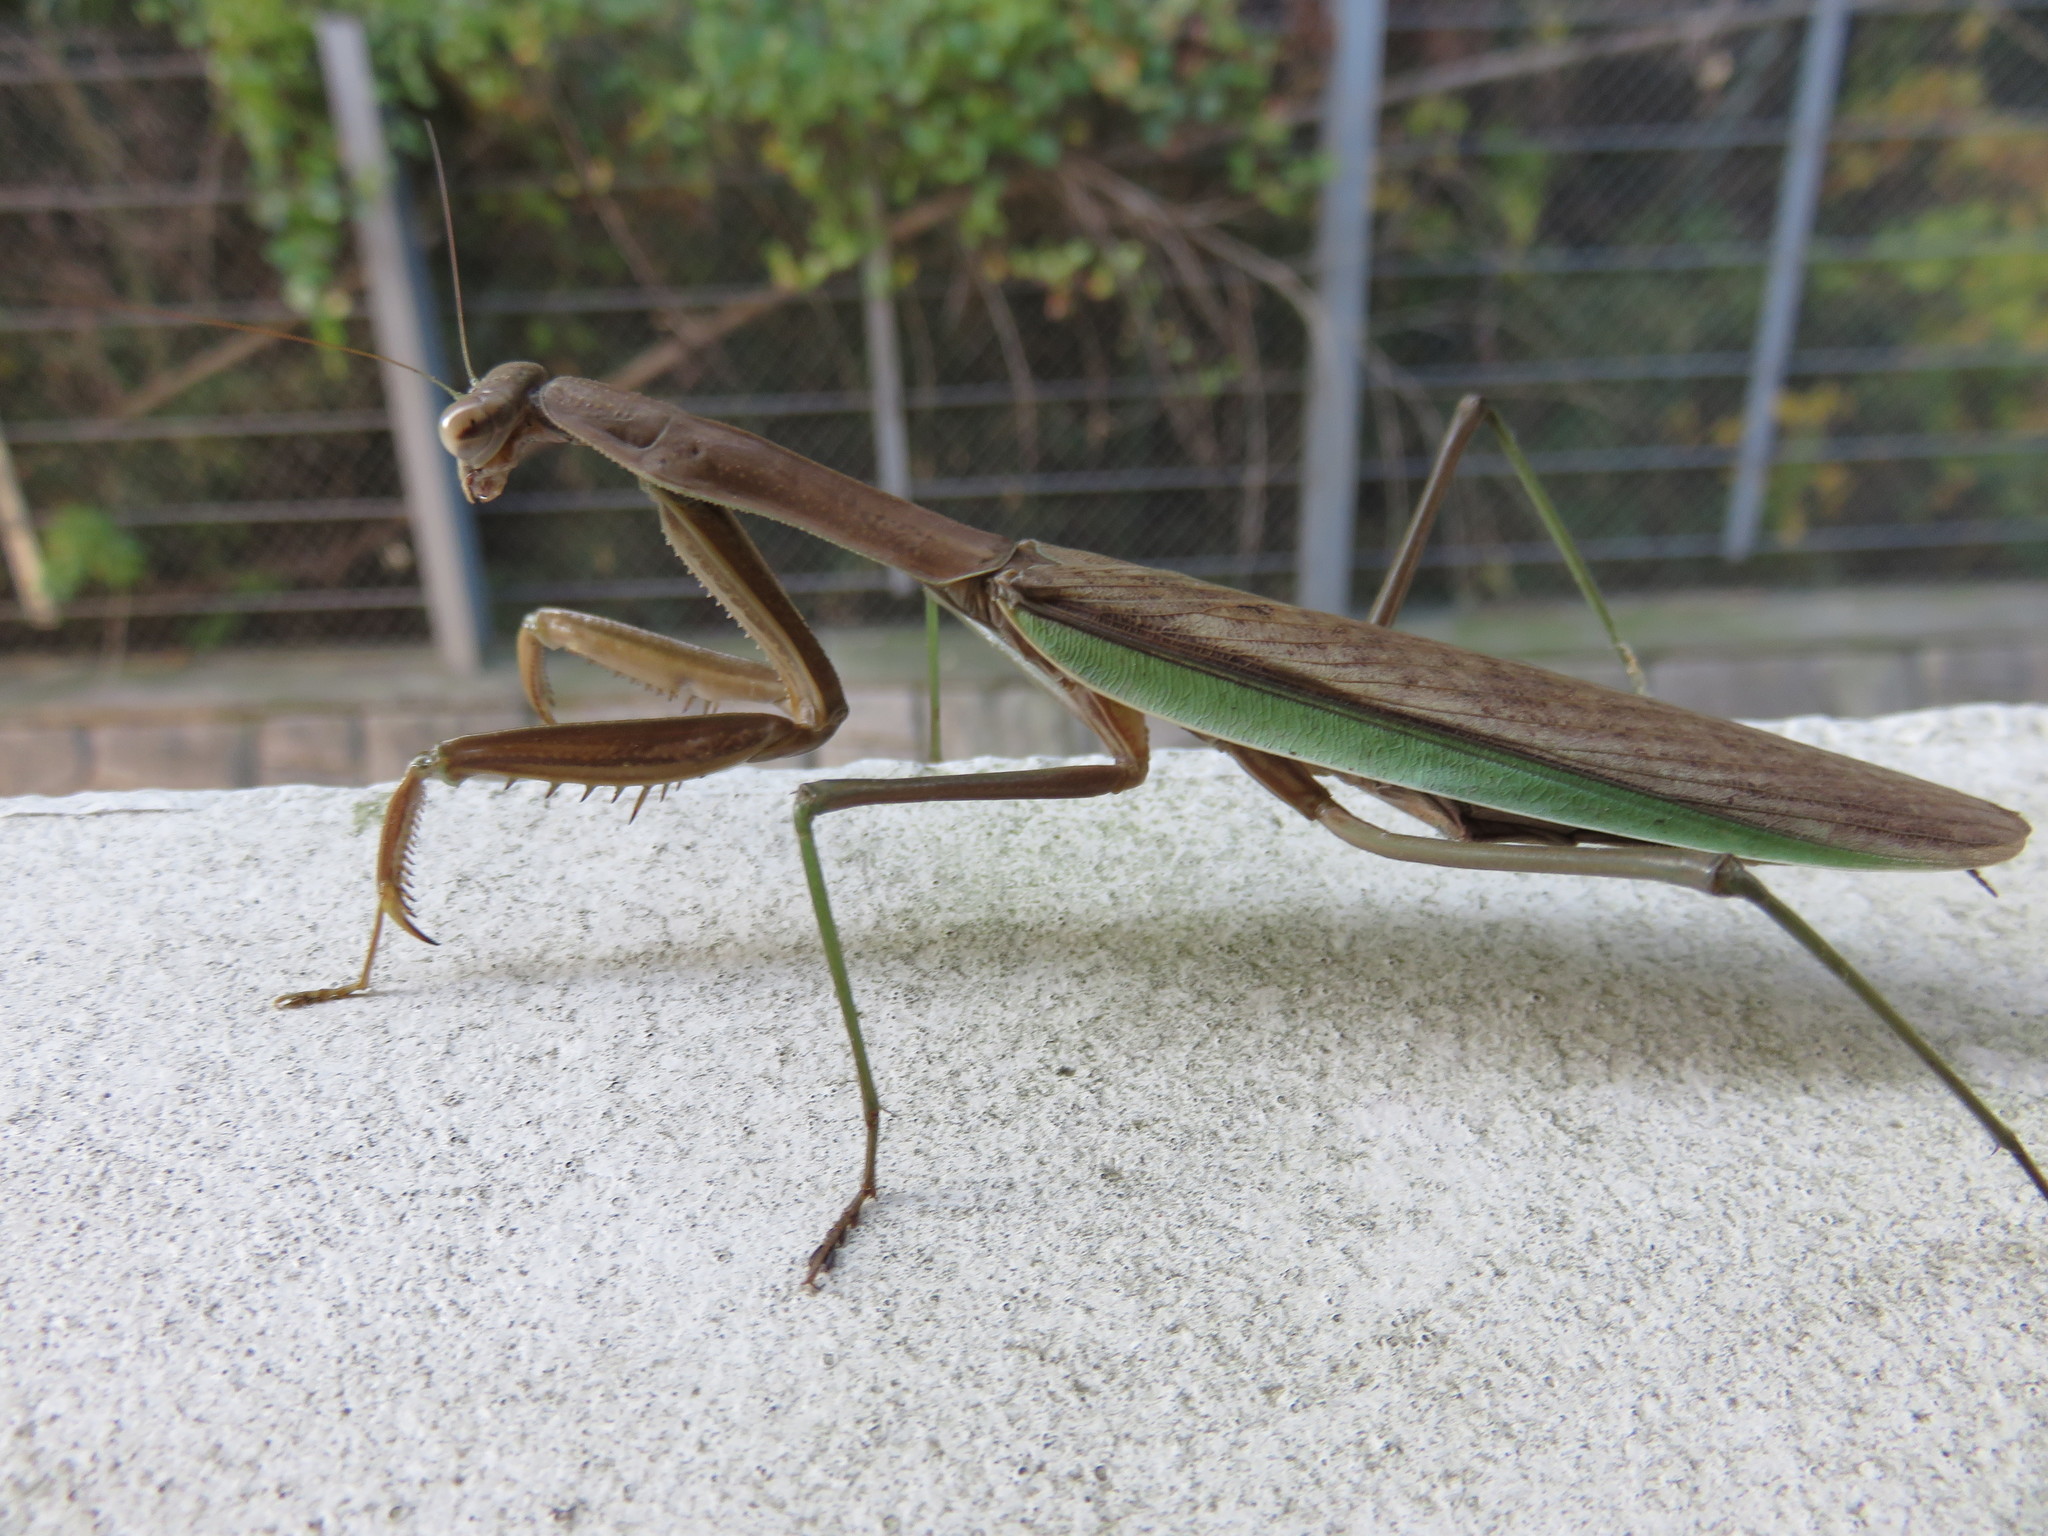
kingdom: Animalia
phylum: Arthropoda
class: Insecta
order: Mantodea
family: Mantidae
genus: Tenodera
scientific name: Tenodera sinensis
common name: Chinese mantis
